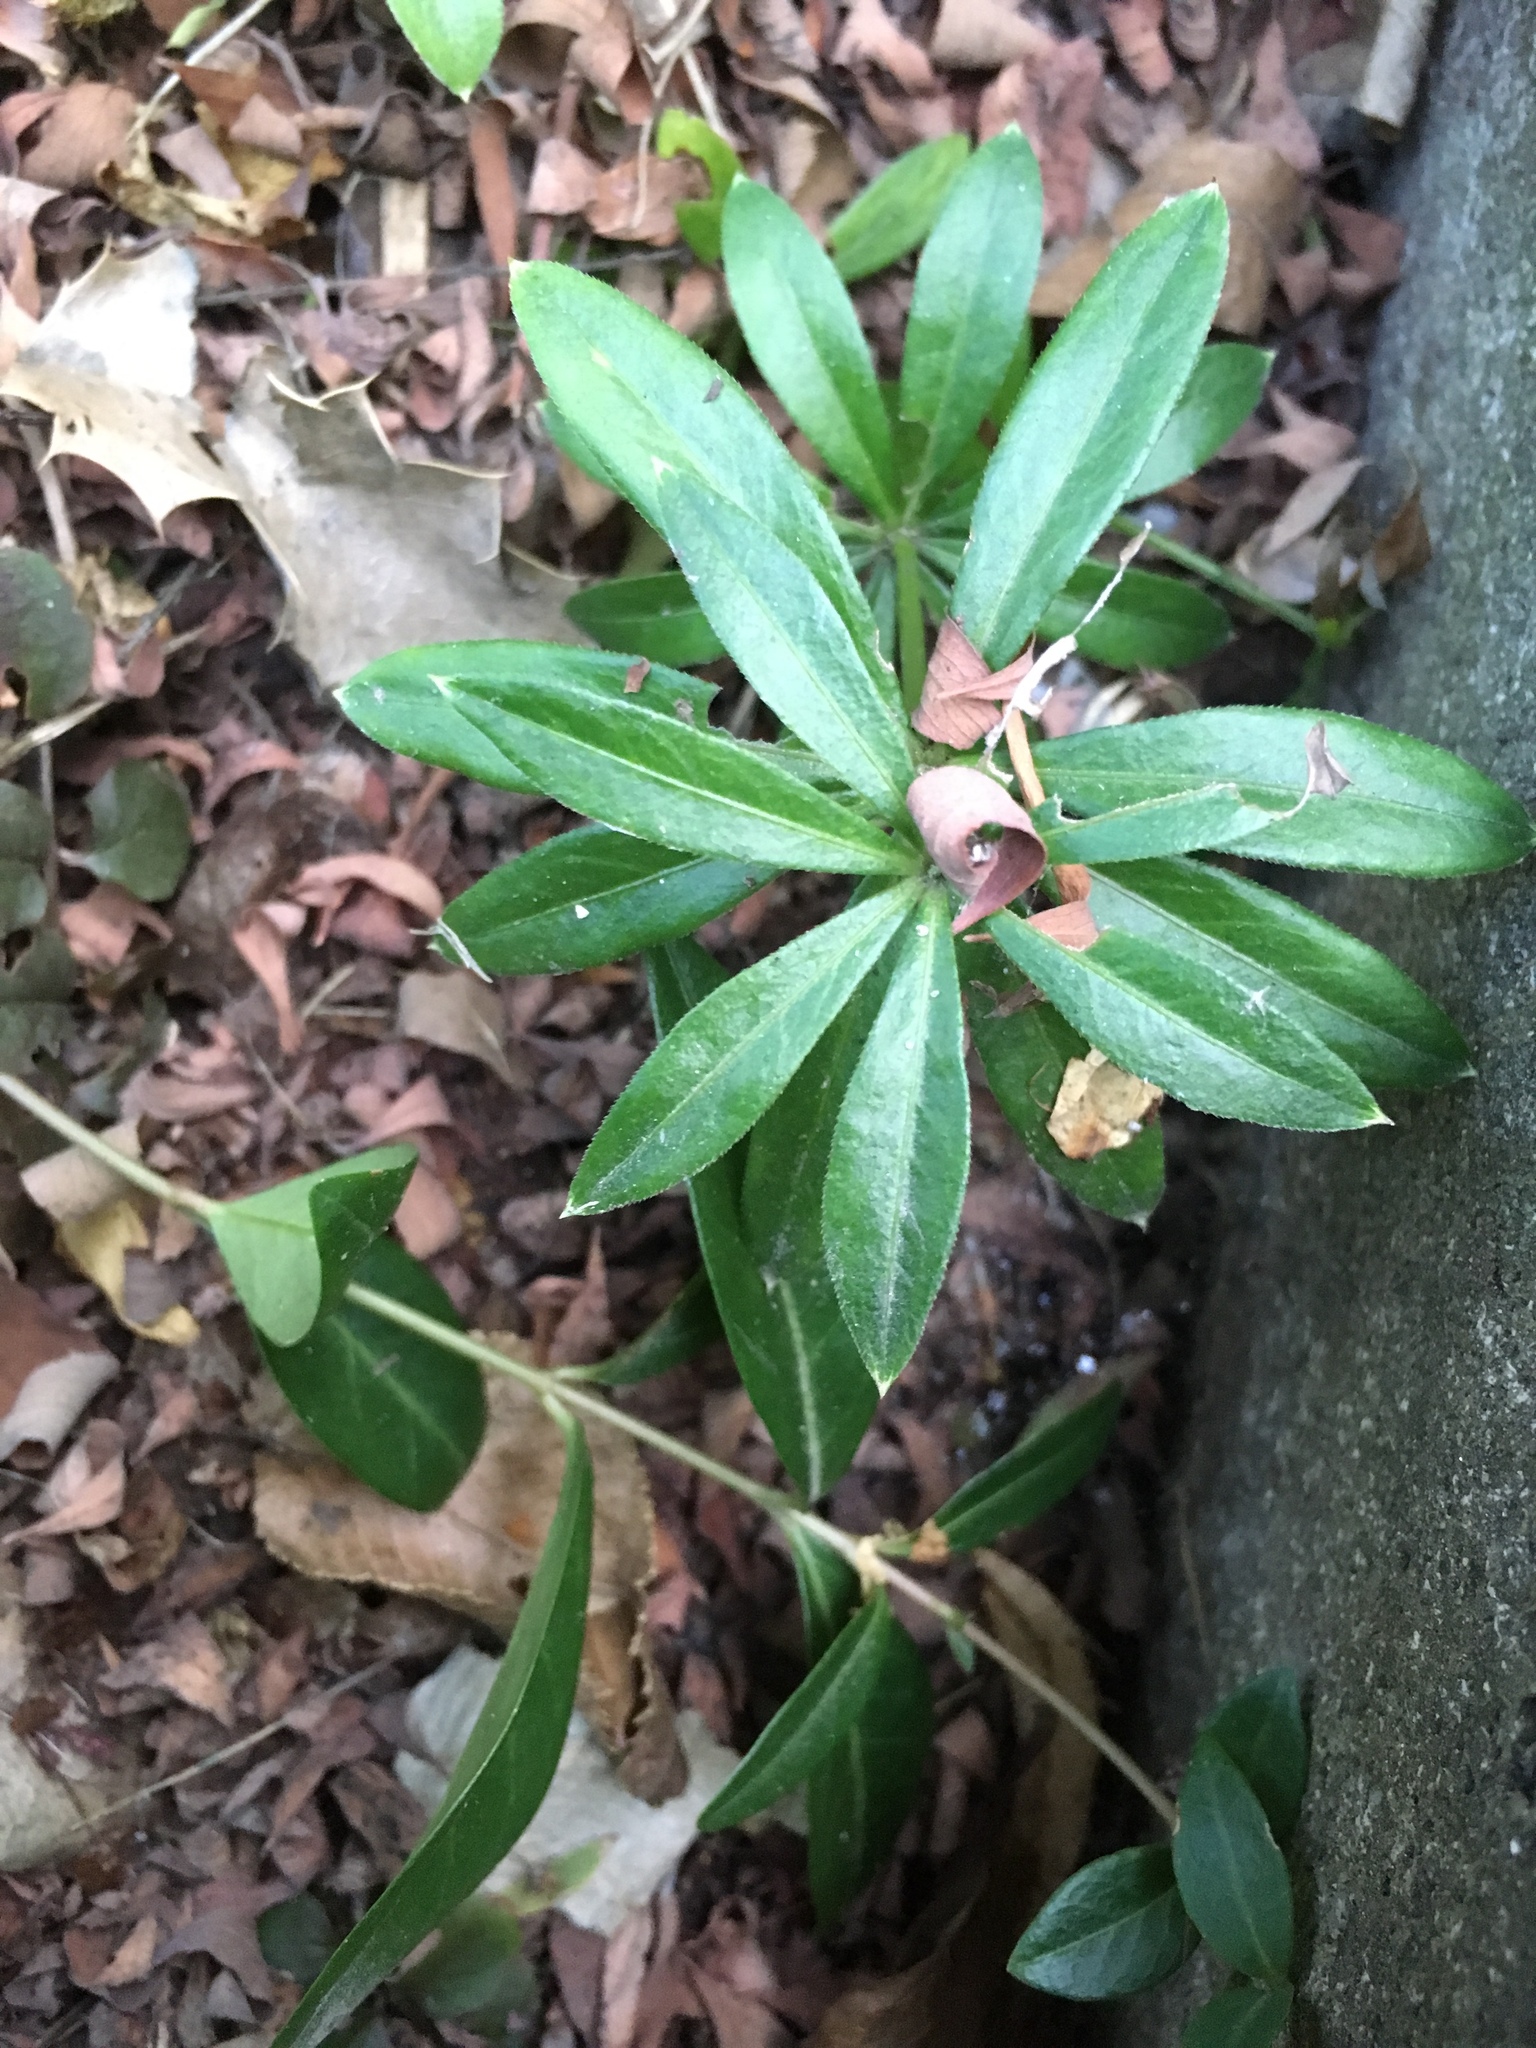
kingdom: Plantae
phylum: Tracheophyta
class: Magnoliopsida
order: Gentianales
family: Apocynaceae
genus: Vinca
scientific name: Vinca minor
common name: Lesser periwinkle
